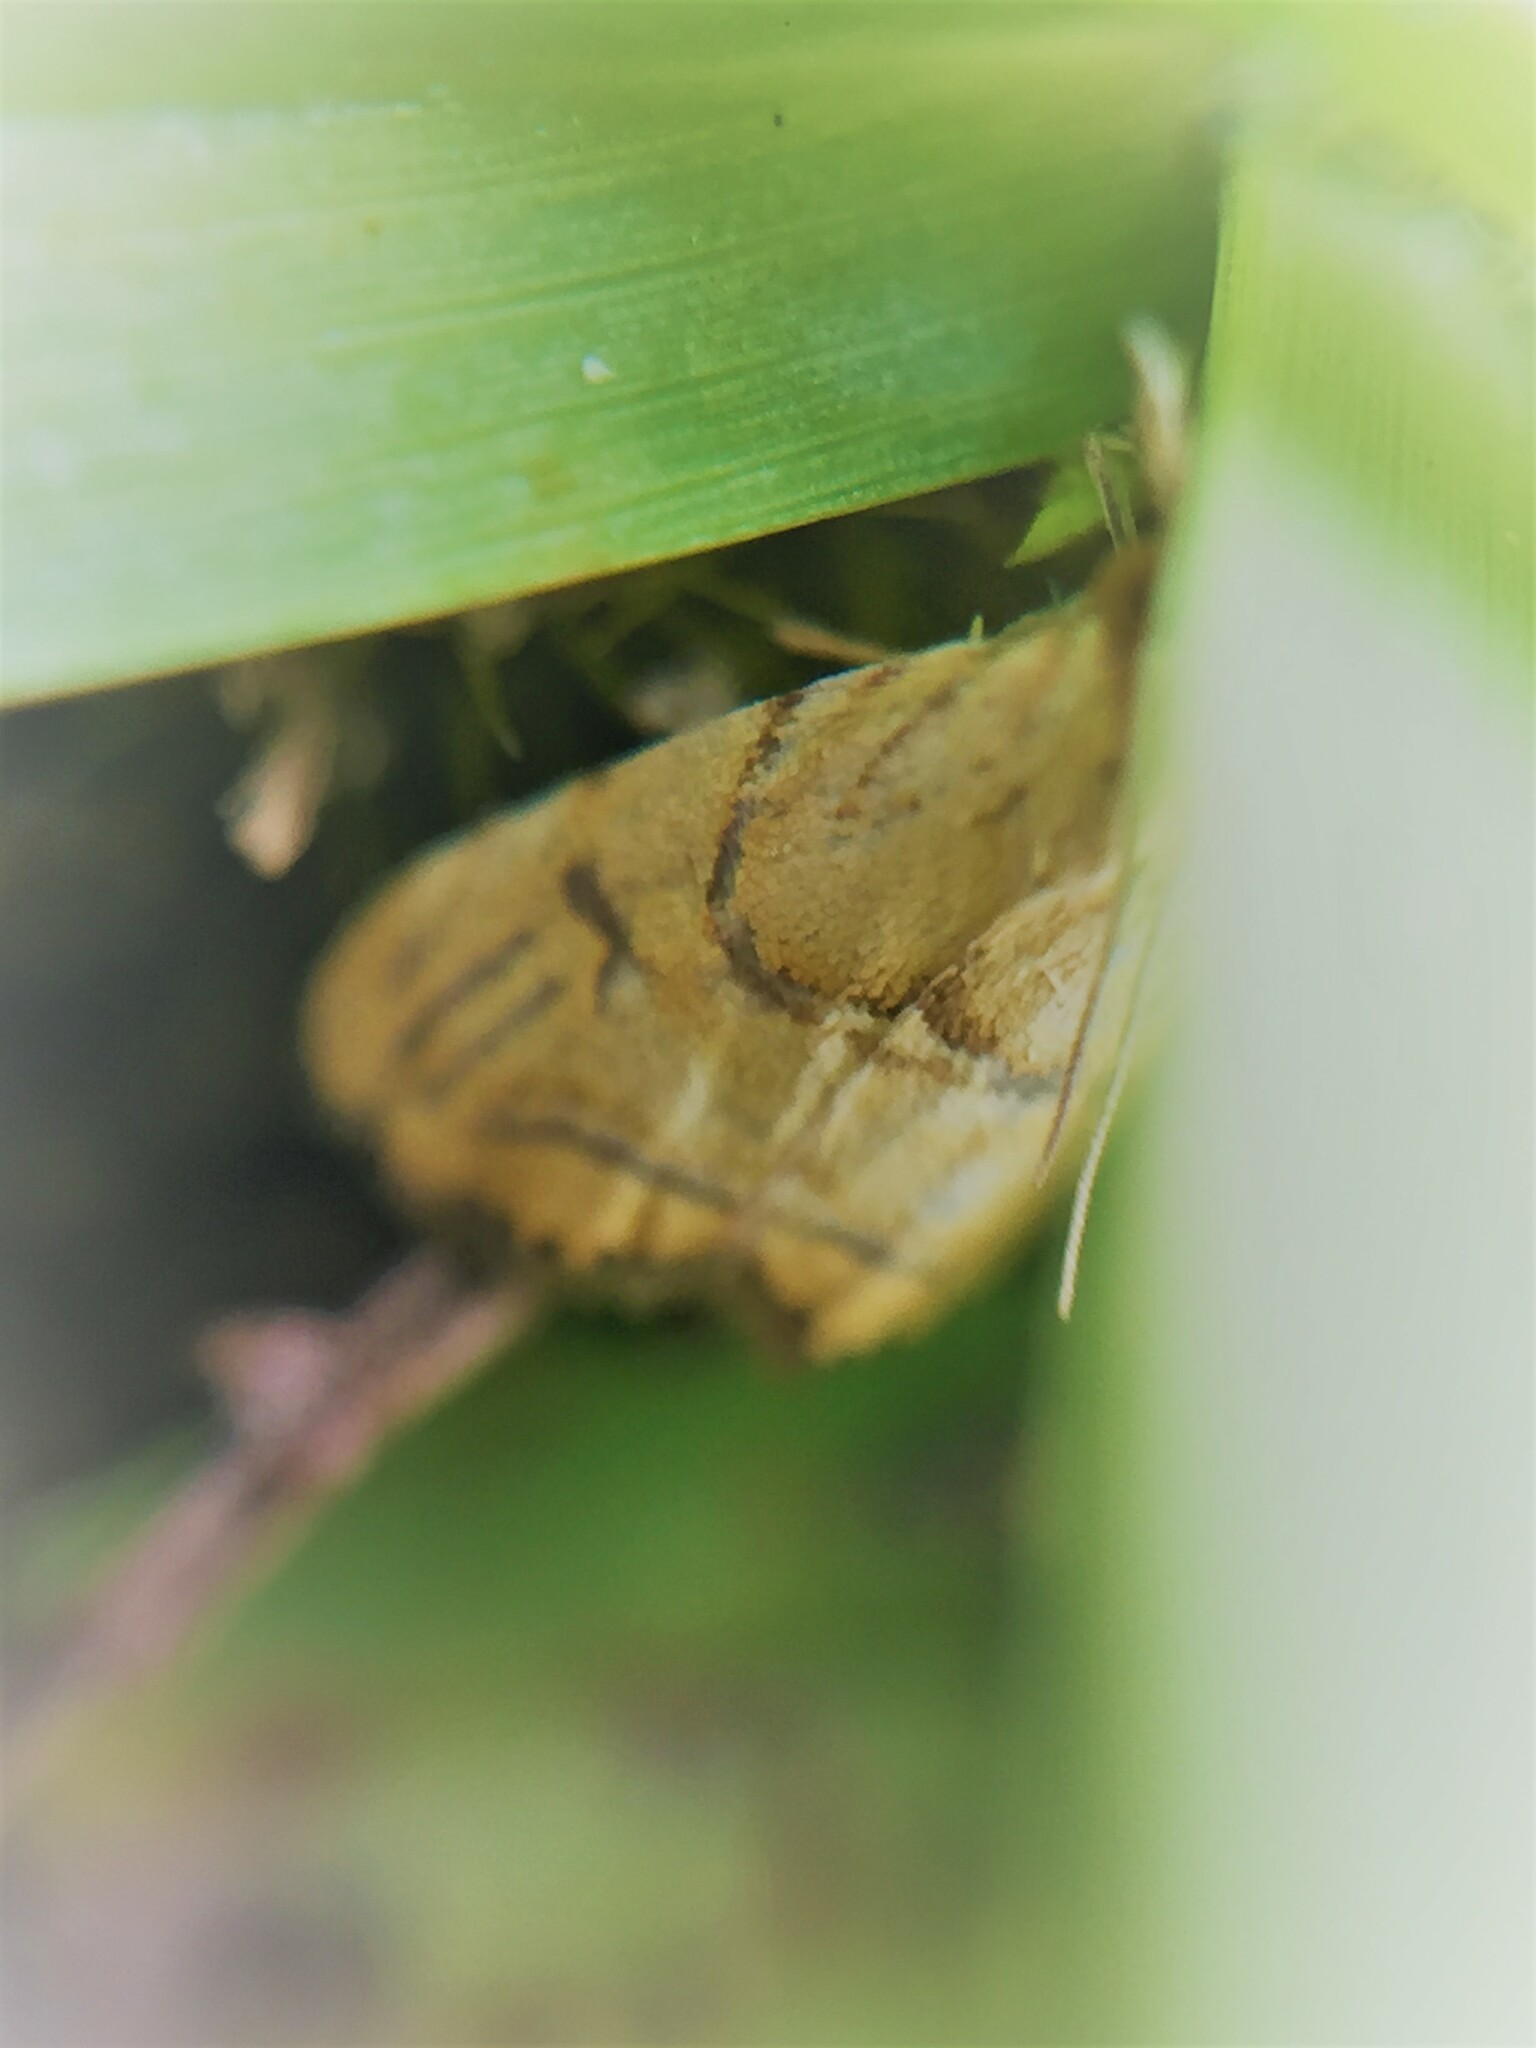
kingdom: Animalia
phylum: Arthropoda
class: Insecta
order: Lepidoptera
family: Crambidae
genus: Glaucocharis
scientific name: Glaucocharis auriscriptella
